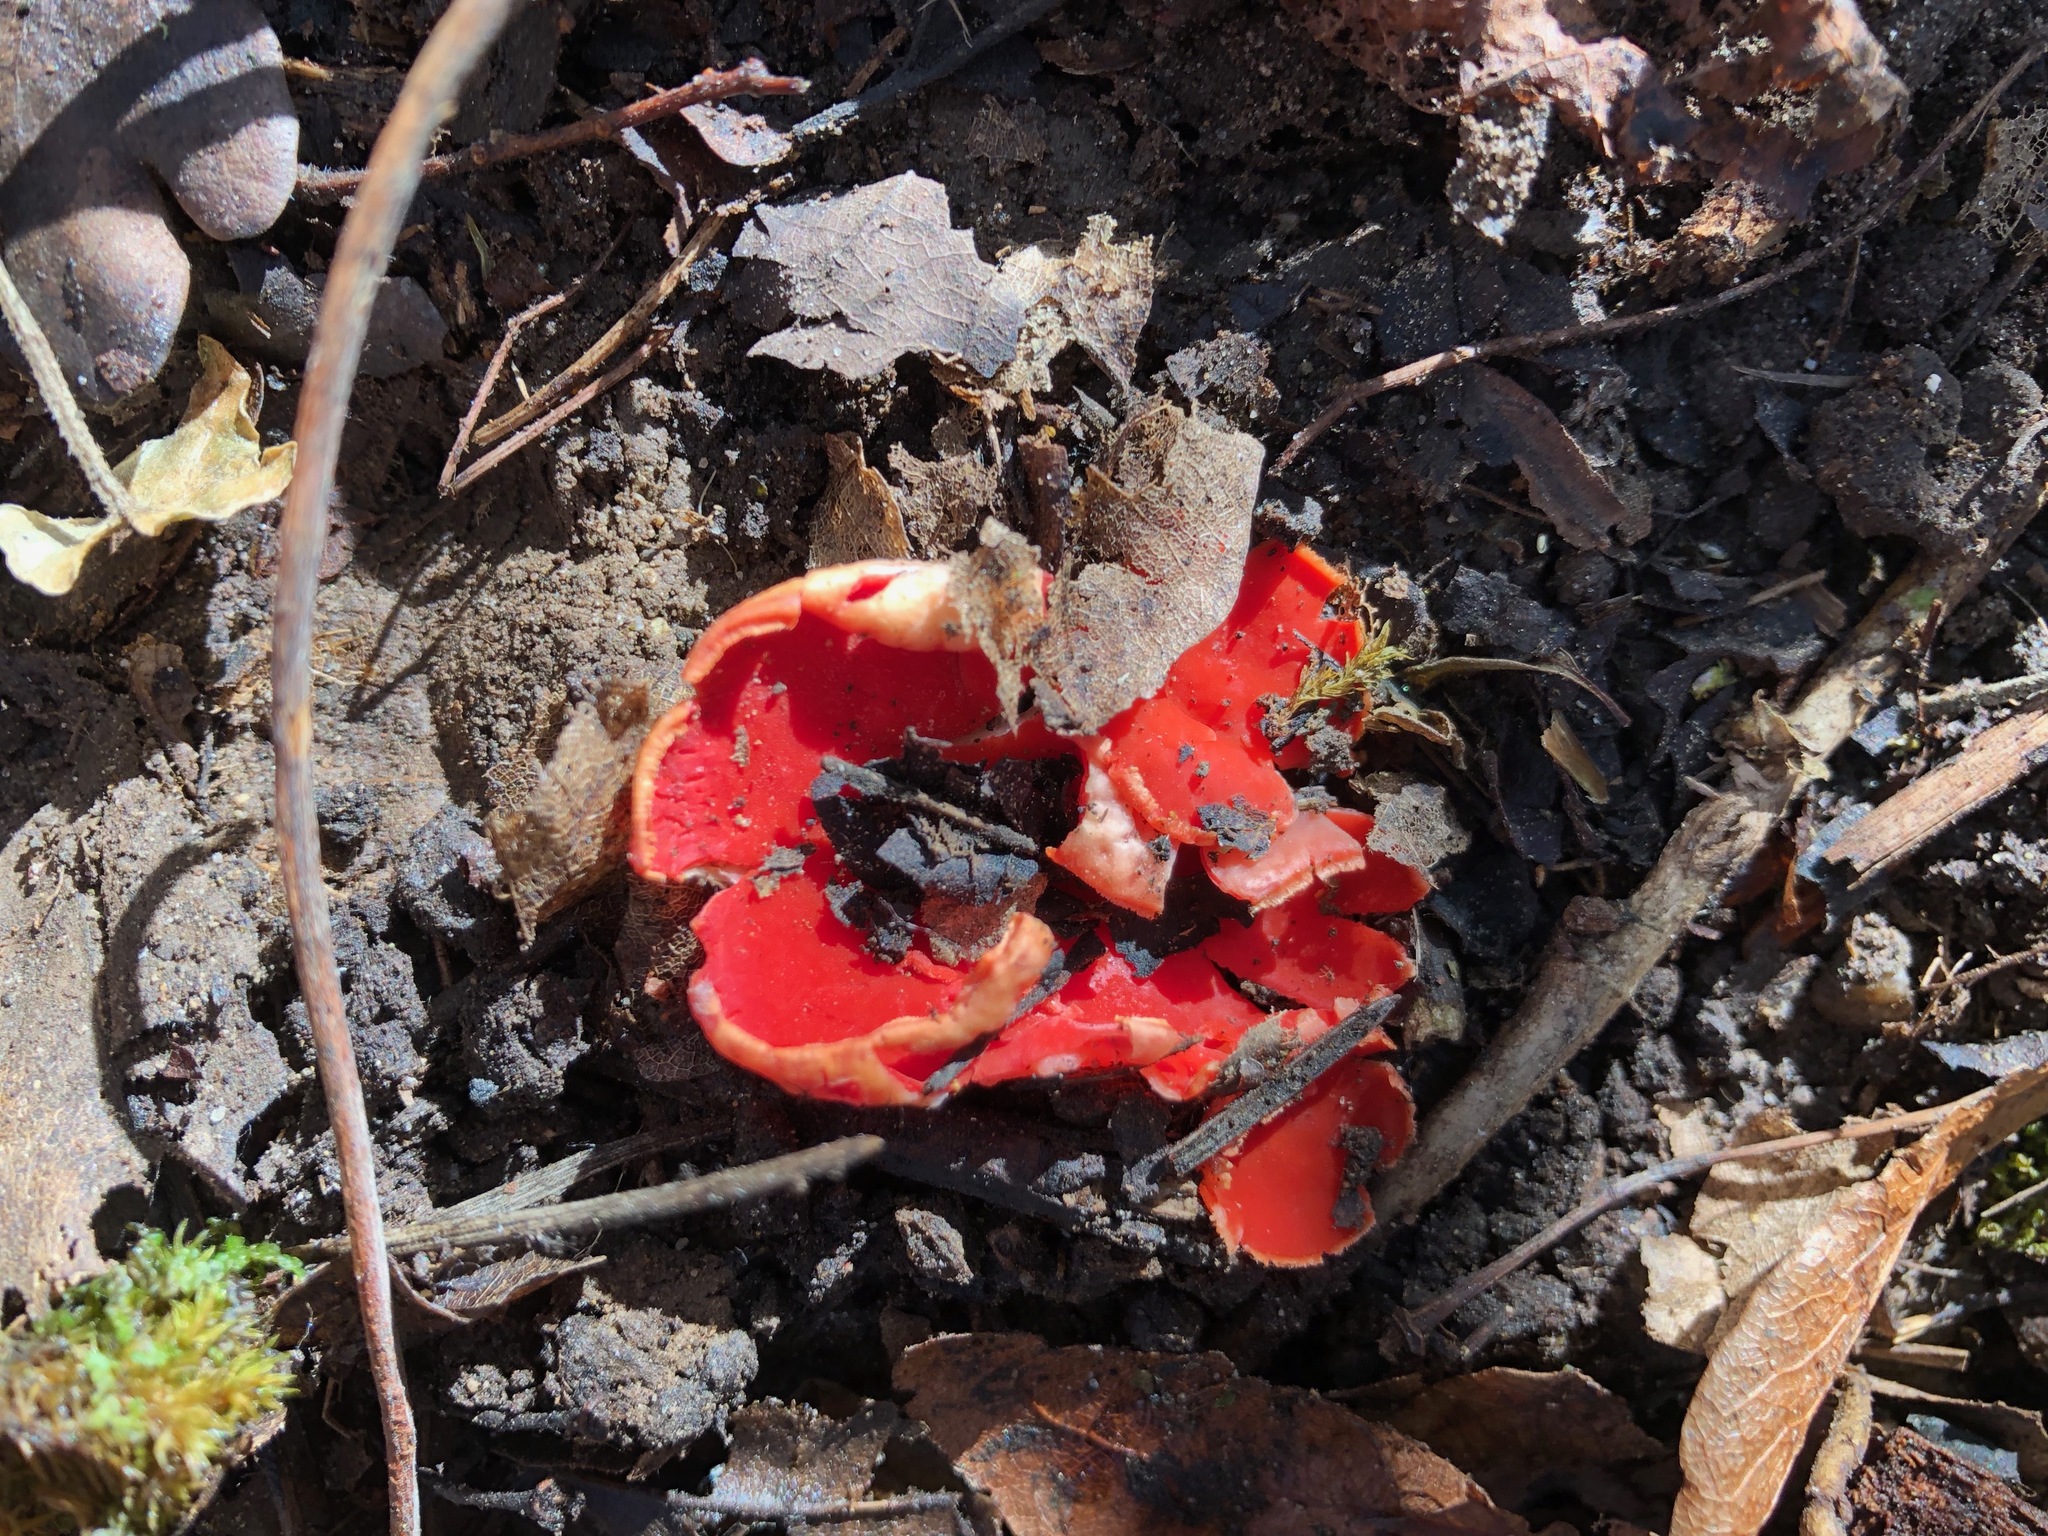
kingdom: Fungi
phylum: Ascomycota
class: Pezizomycetes
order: Pezizales
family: Sarcoscyphaceae
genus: Sarcoscypha
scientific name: Sarcoscypha
